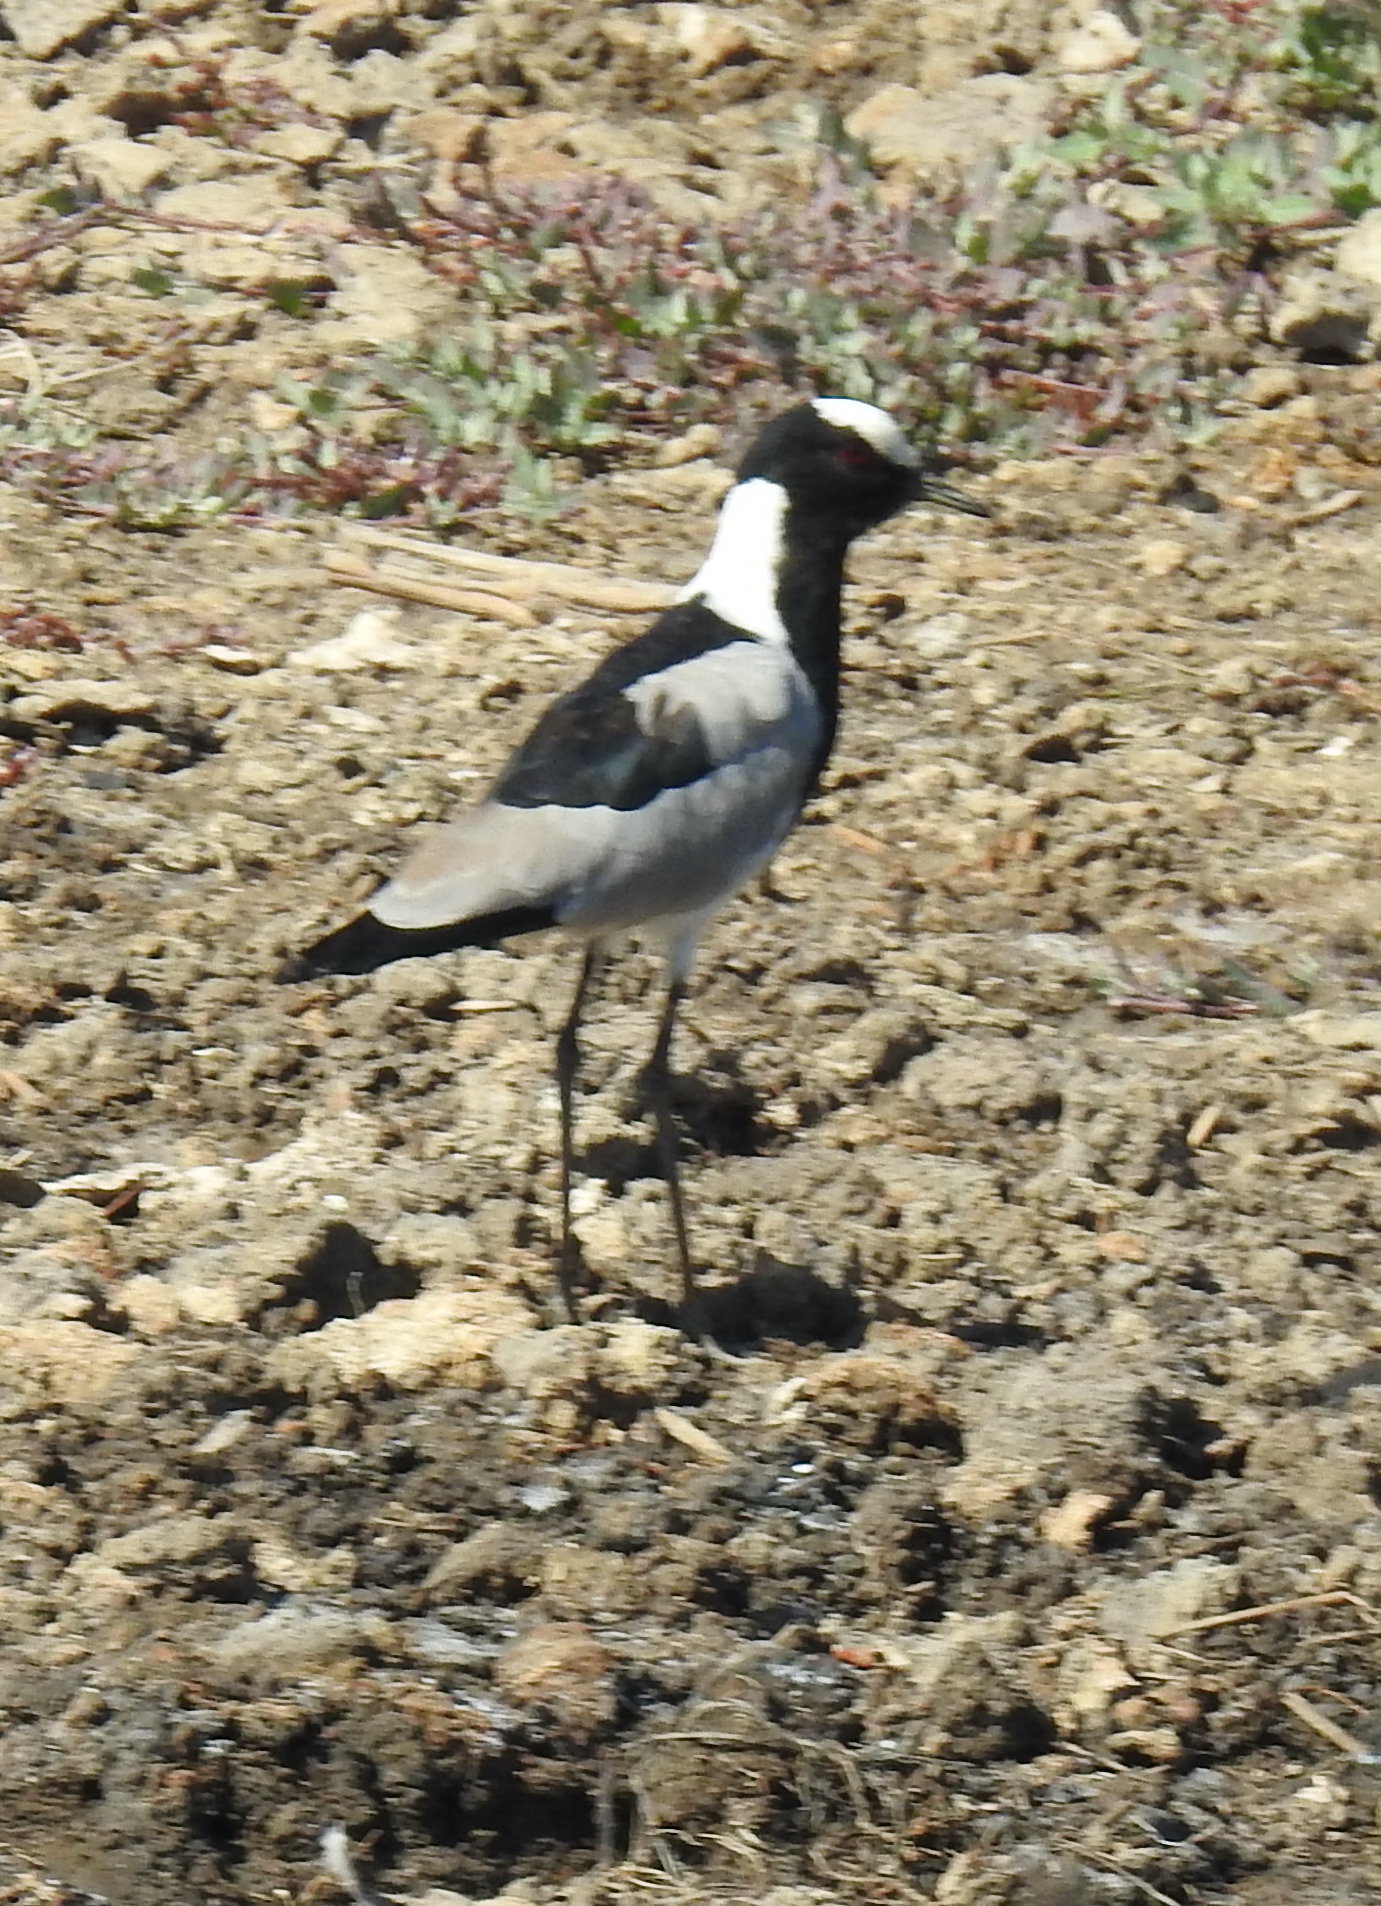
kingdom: Animalia
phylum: Chordata
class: Aves
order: Charadriiformes
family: Charadriidae
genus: Vanellus
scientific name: Vanellus armatus
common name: Blacksmith lapwing
